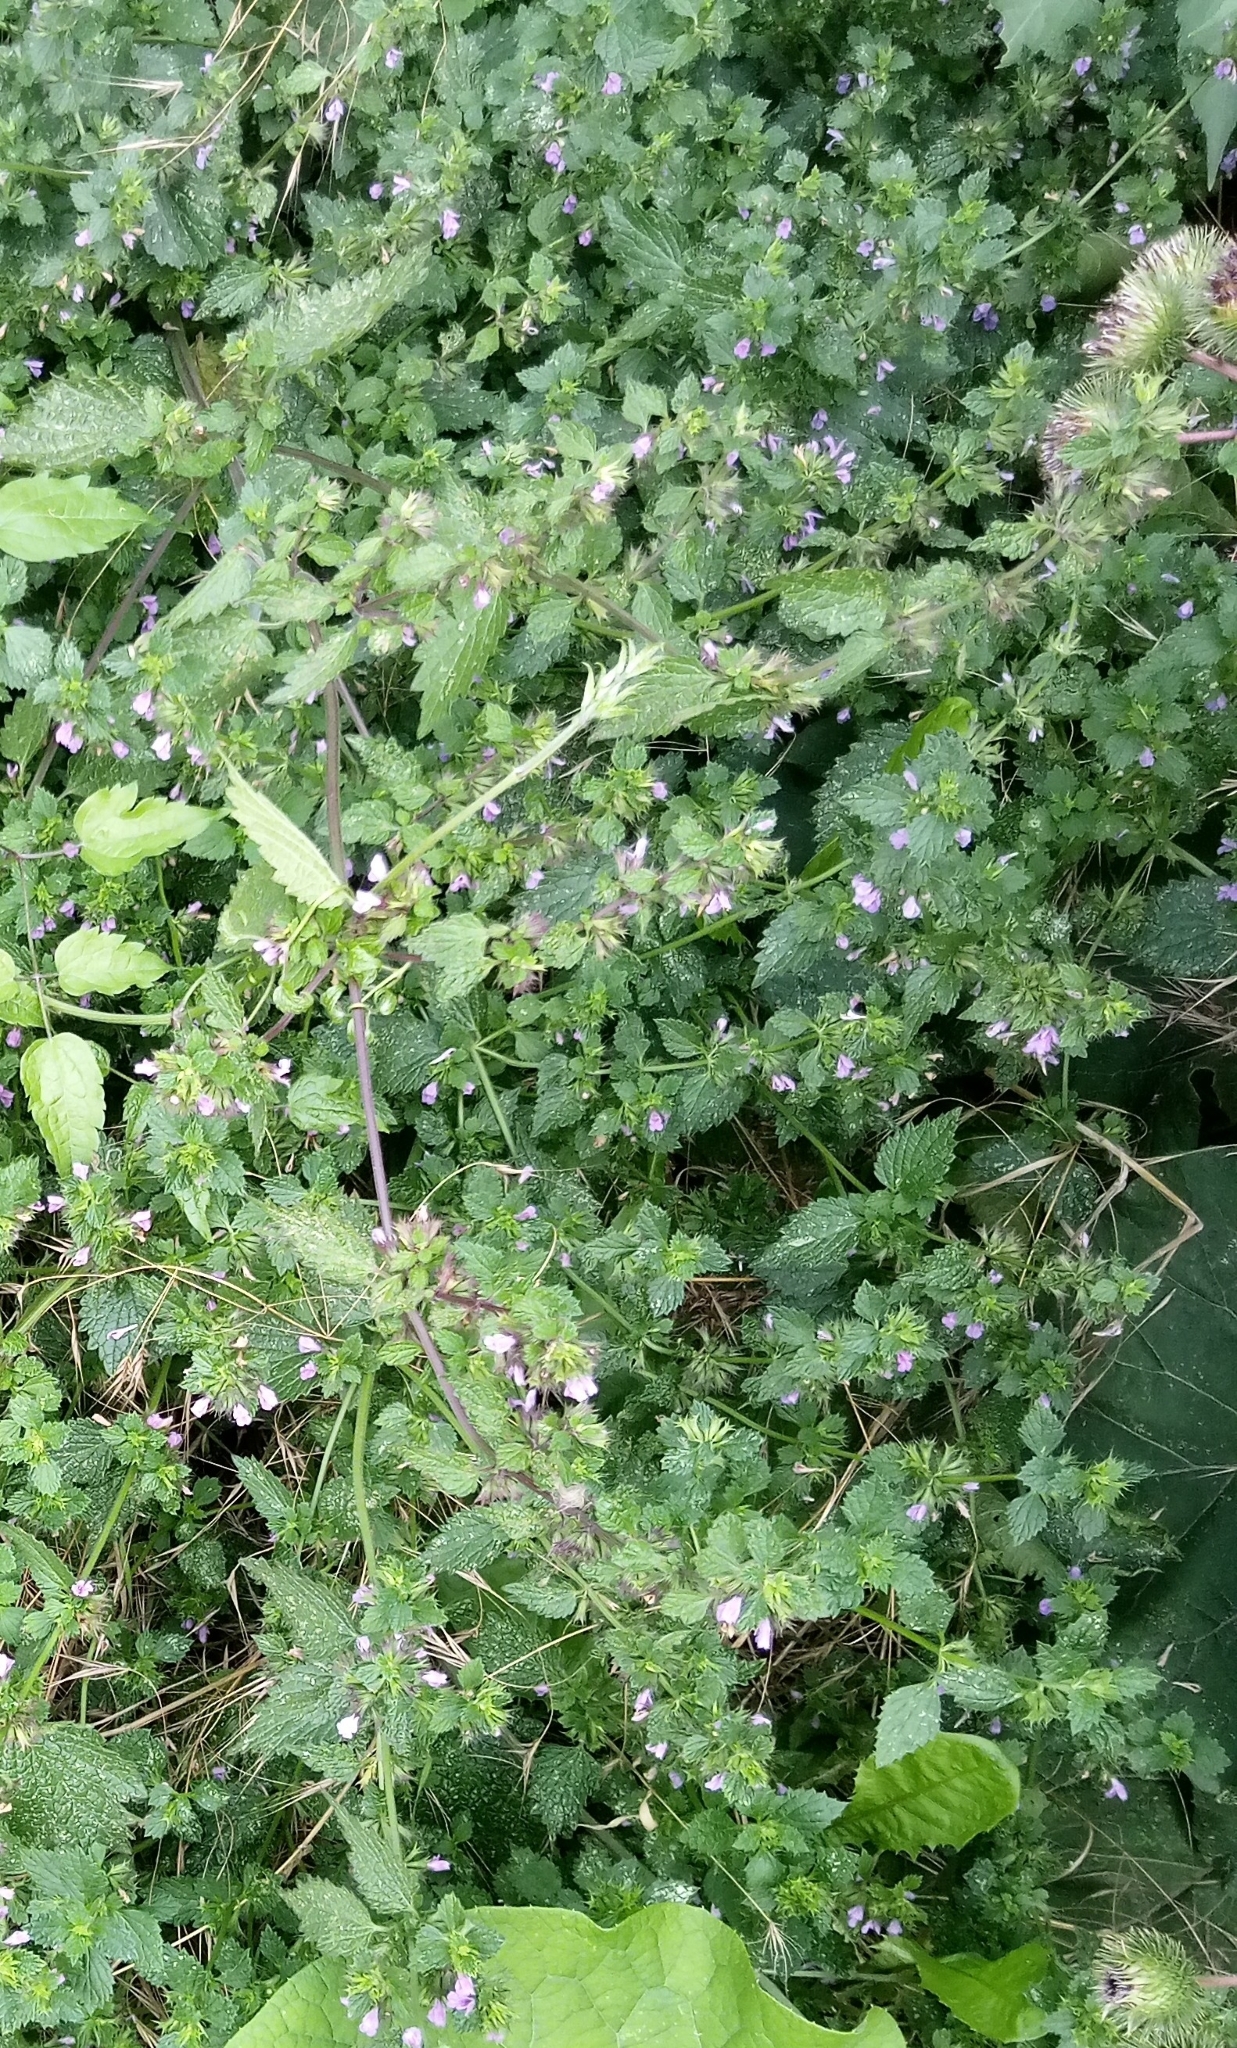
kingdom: Plantae
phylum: Tracheophyta
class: Magnoliopsida
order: Lamiales
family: Lamiaceae
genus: Ballota
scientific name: Ballota nigra
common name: Black horehound
